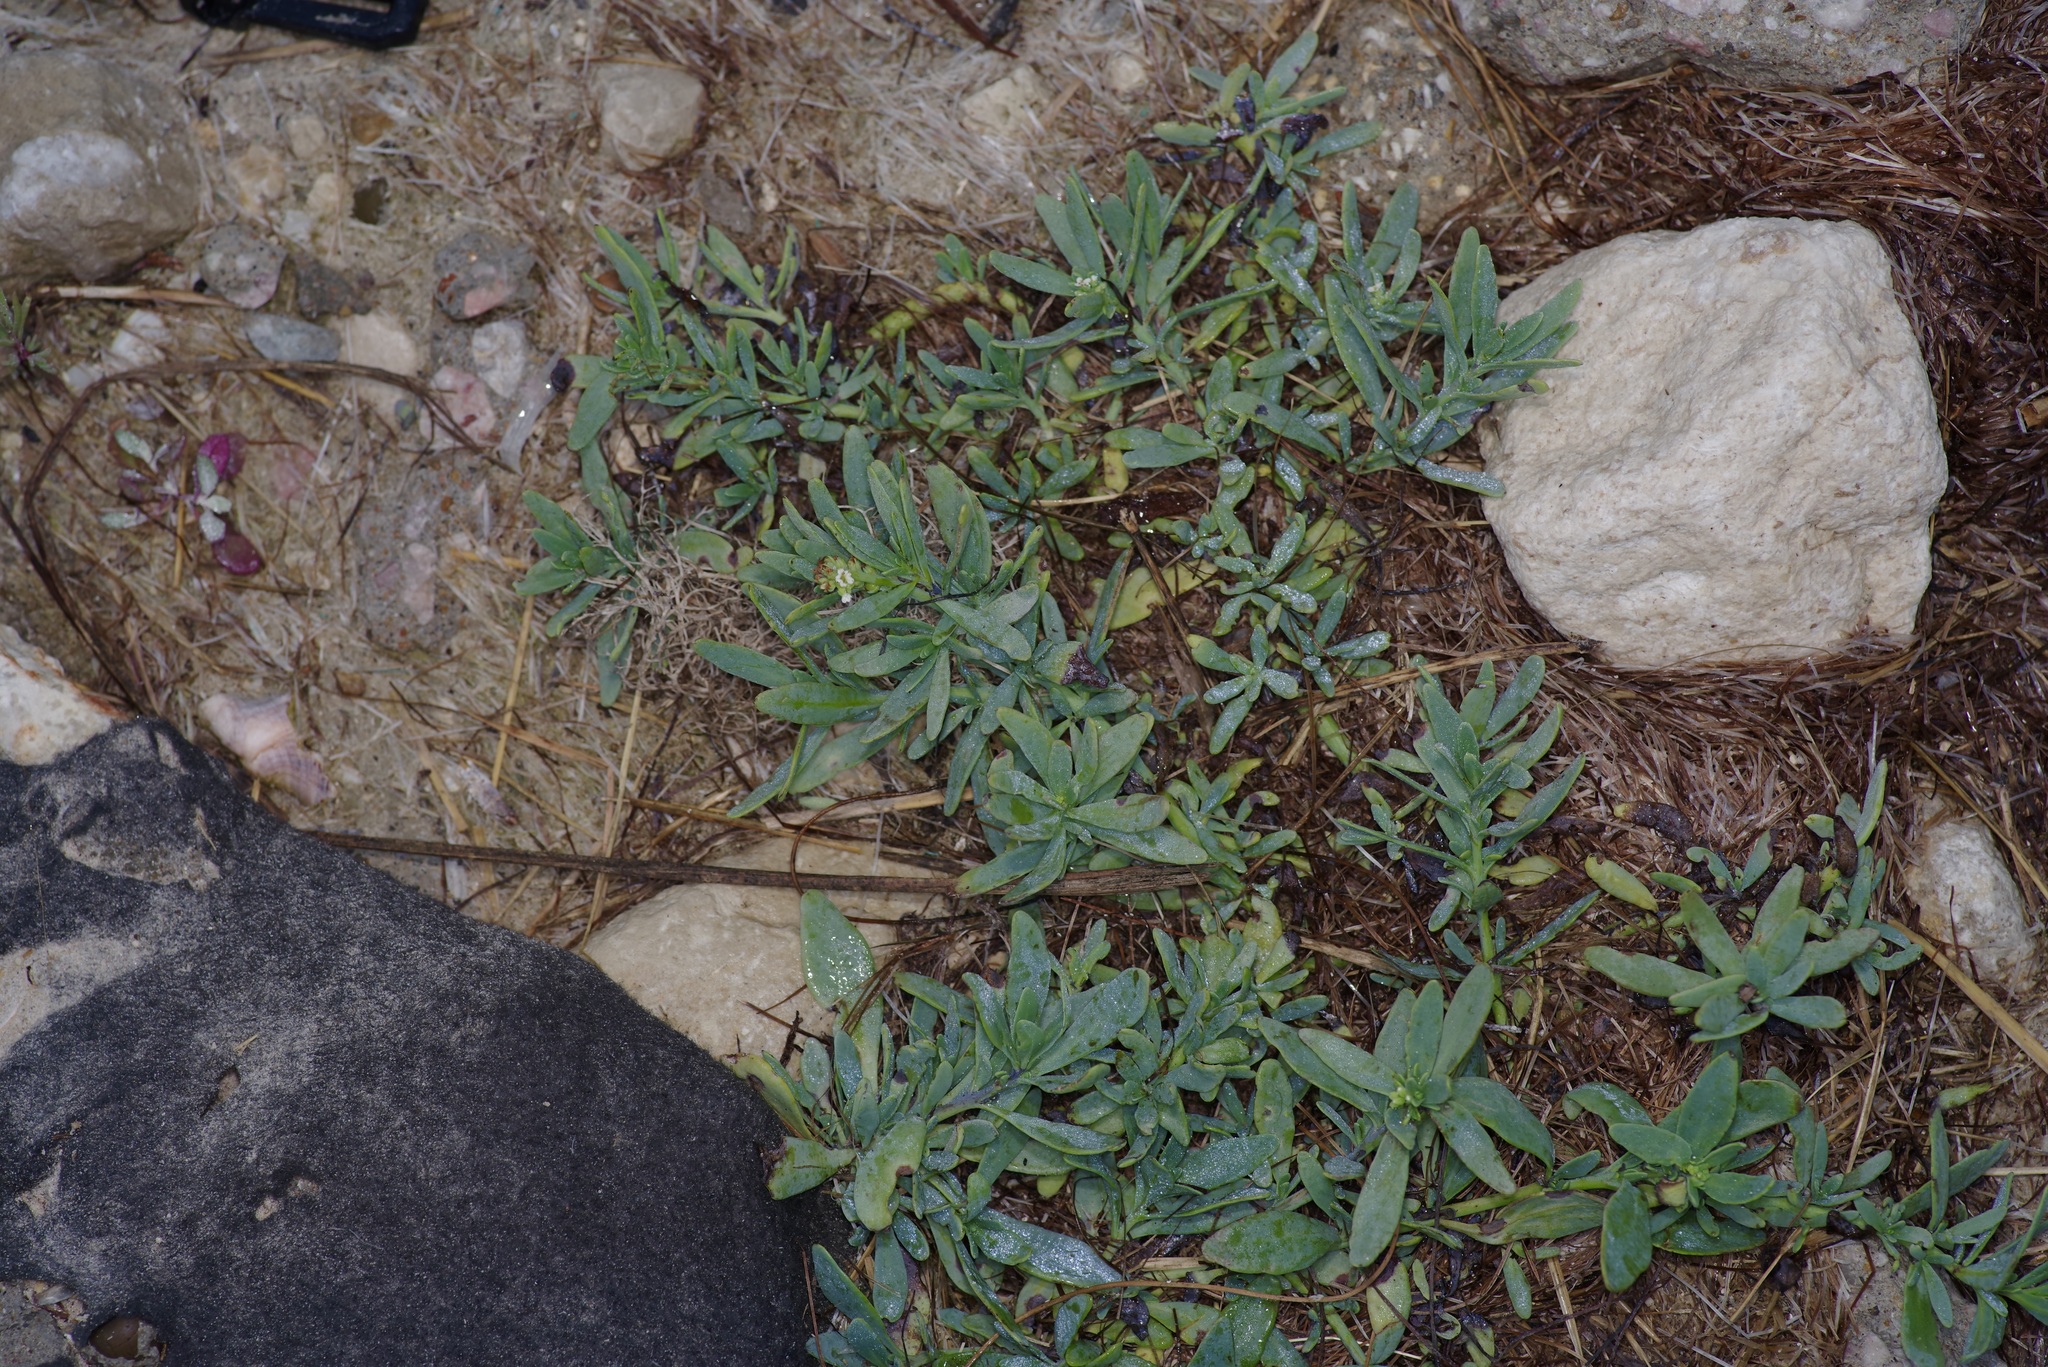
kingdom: Plantae
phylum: Tracheophyta
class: Magnoliopsida
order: Boraginales
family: Heliotropiaceae
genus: Heliotropium
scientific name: Heliotropium curassavicum
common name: Seaside heliotrope
